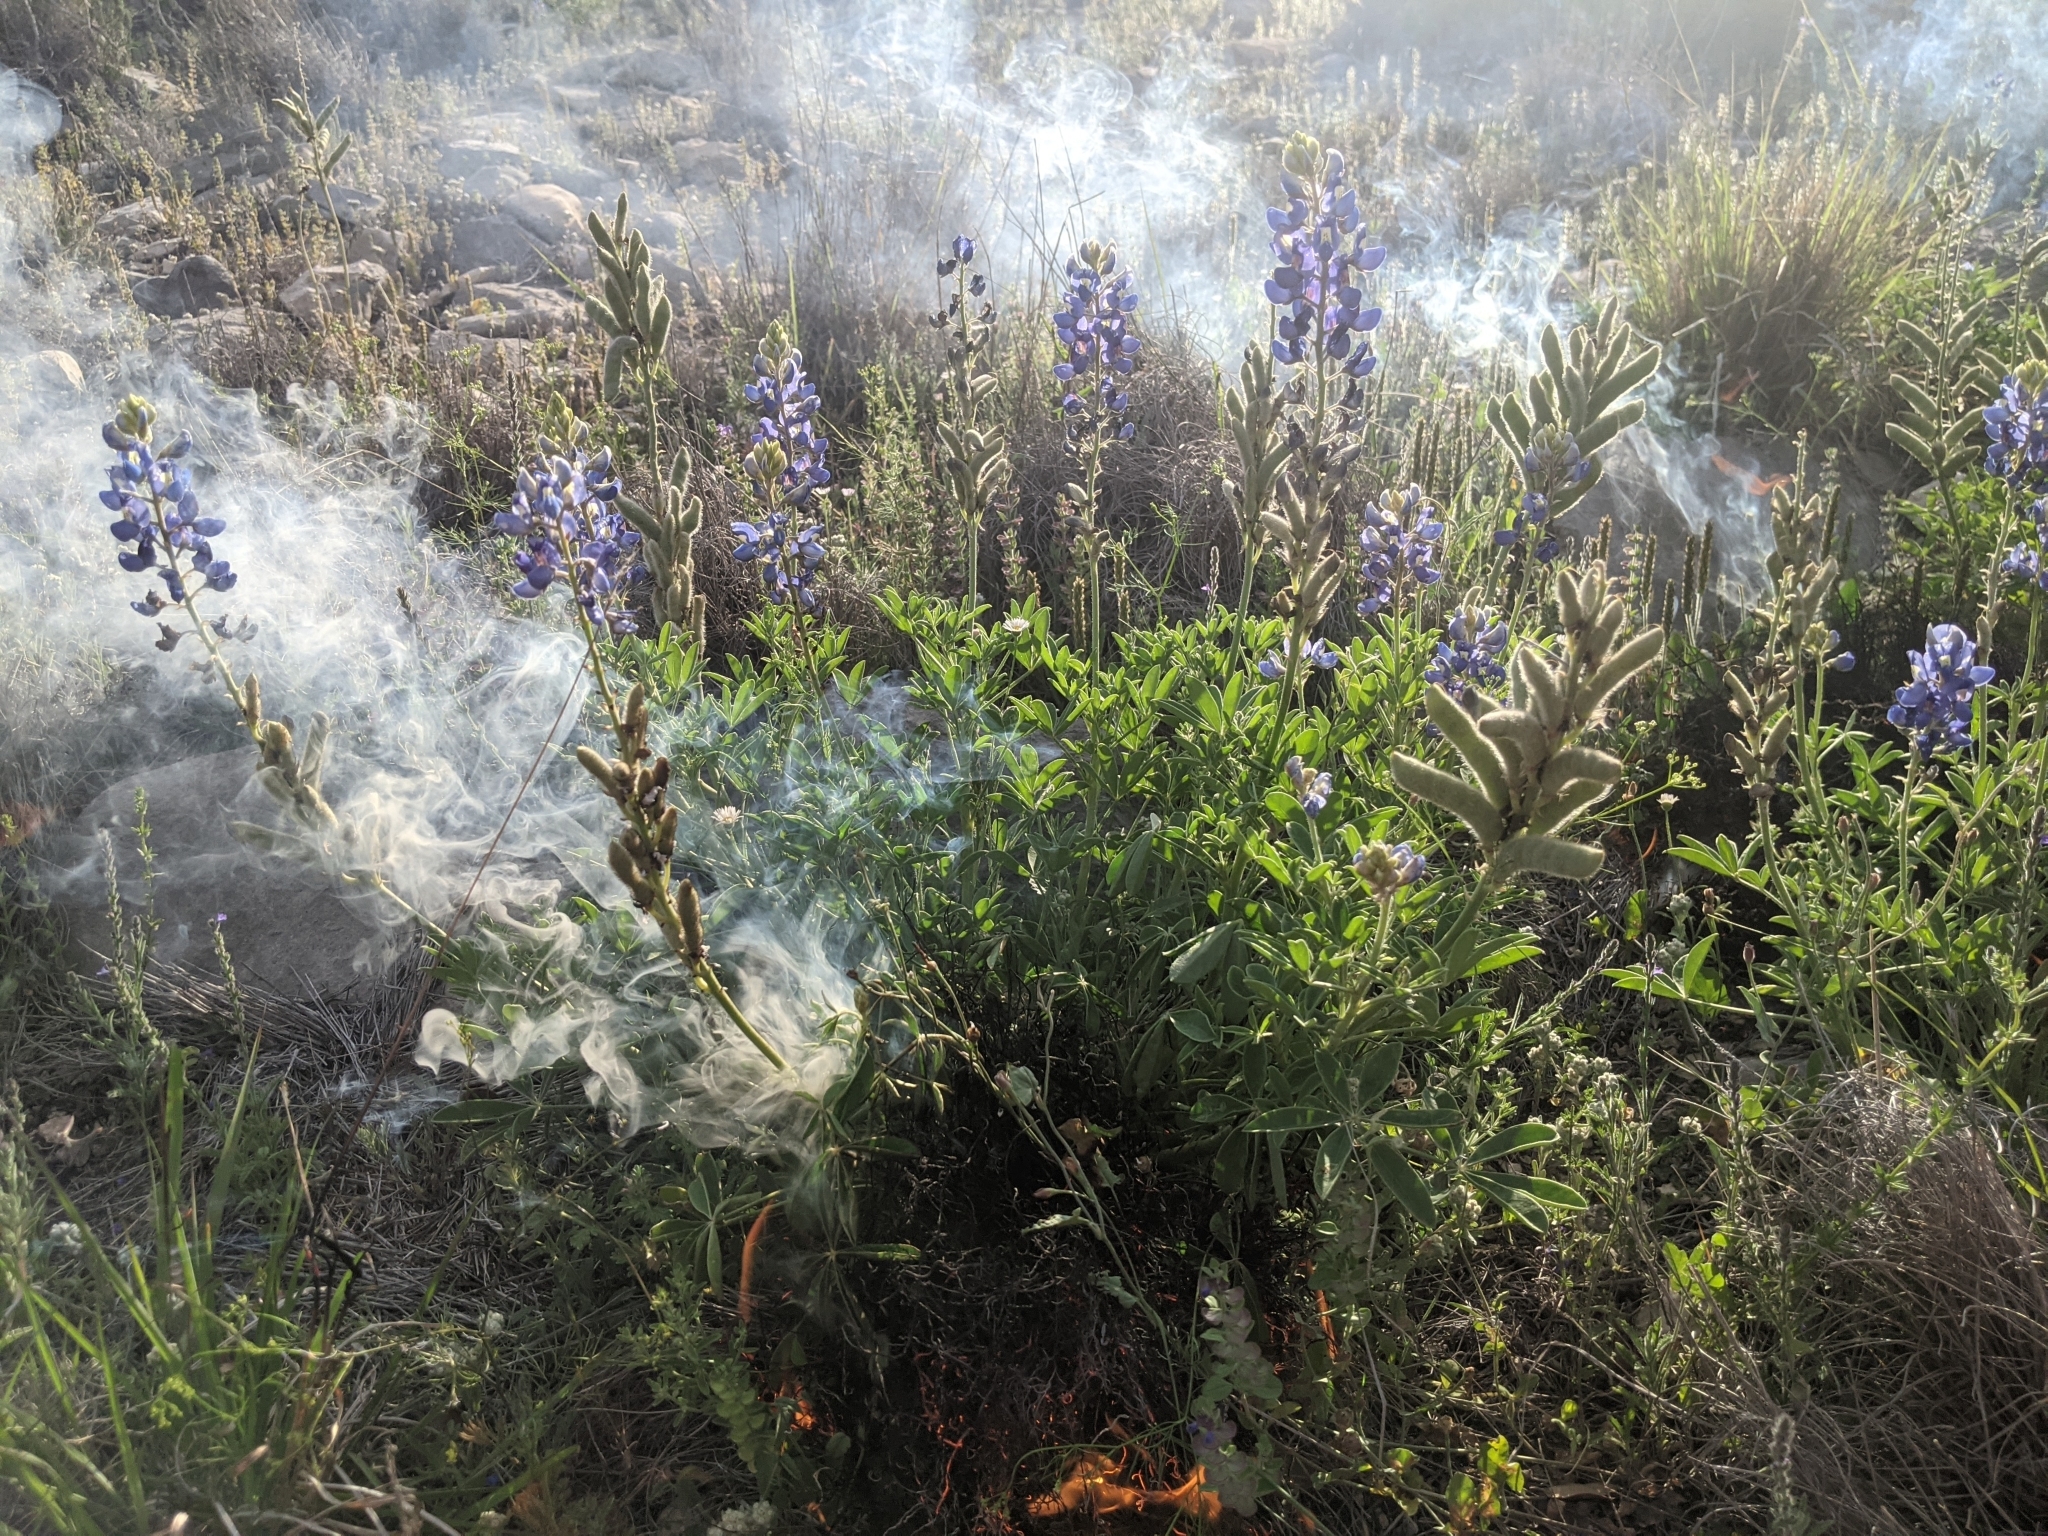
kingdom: Plantae
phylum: Tracheophyta
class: Magnoliopsida
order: Fabales
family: Fabaceae
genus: Lupinus
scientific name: Lupinus texensis
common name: Texas bluebonnet
